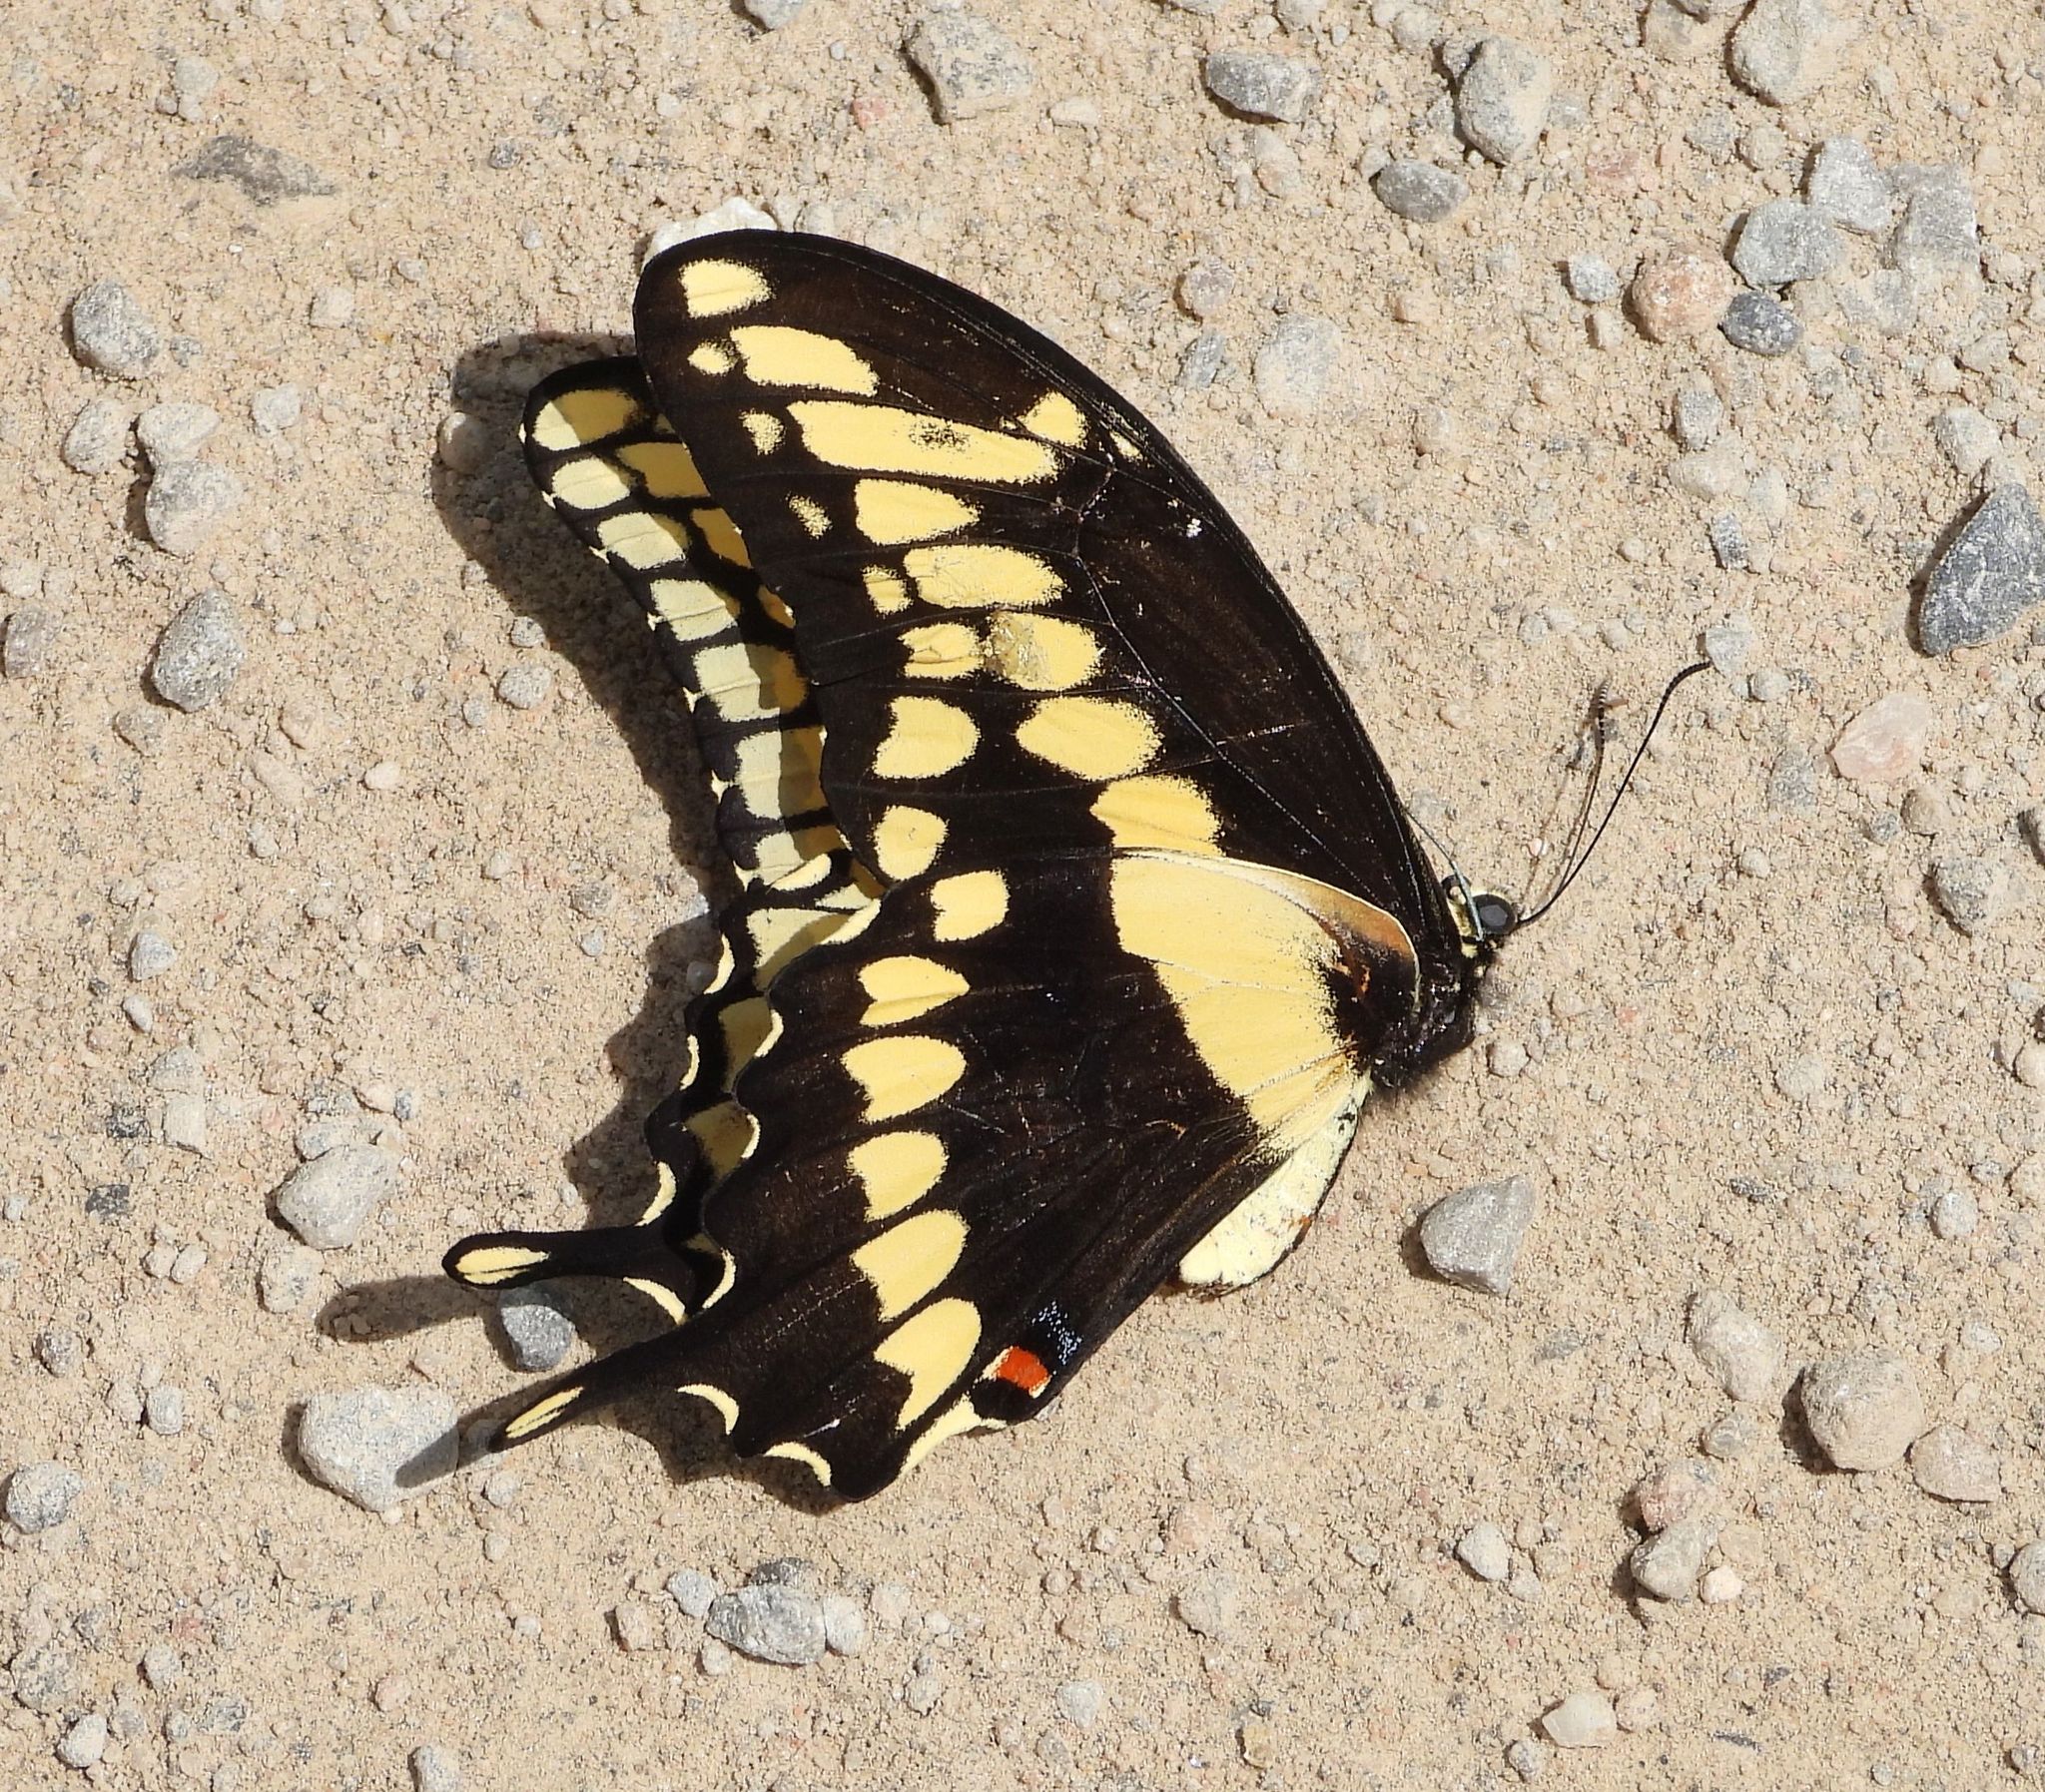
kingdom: Animalia
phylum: Arthropoda
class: Insecta
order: Lepidoptera
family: Papilionidae
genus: Papilio
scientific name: Papilio cresphontes
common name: Giant swallowtail
